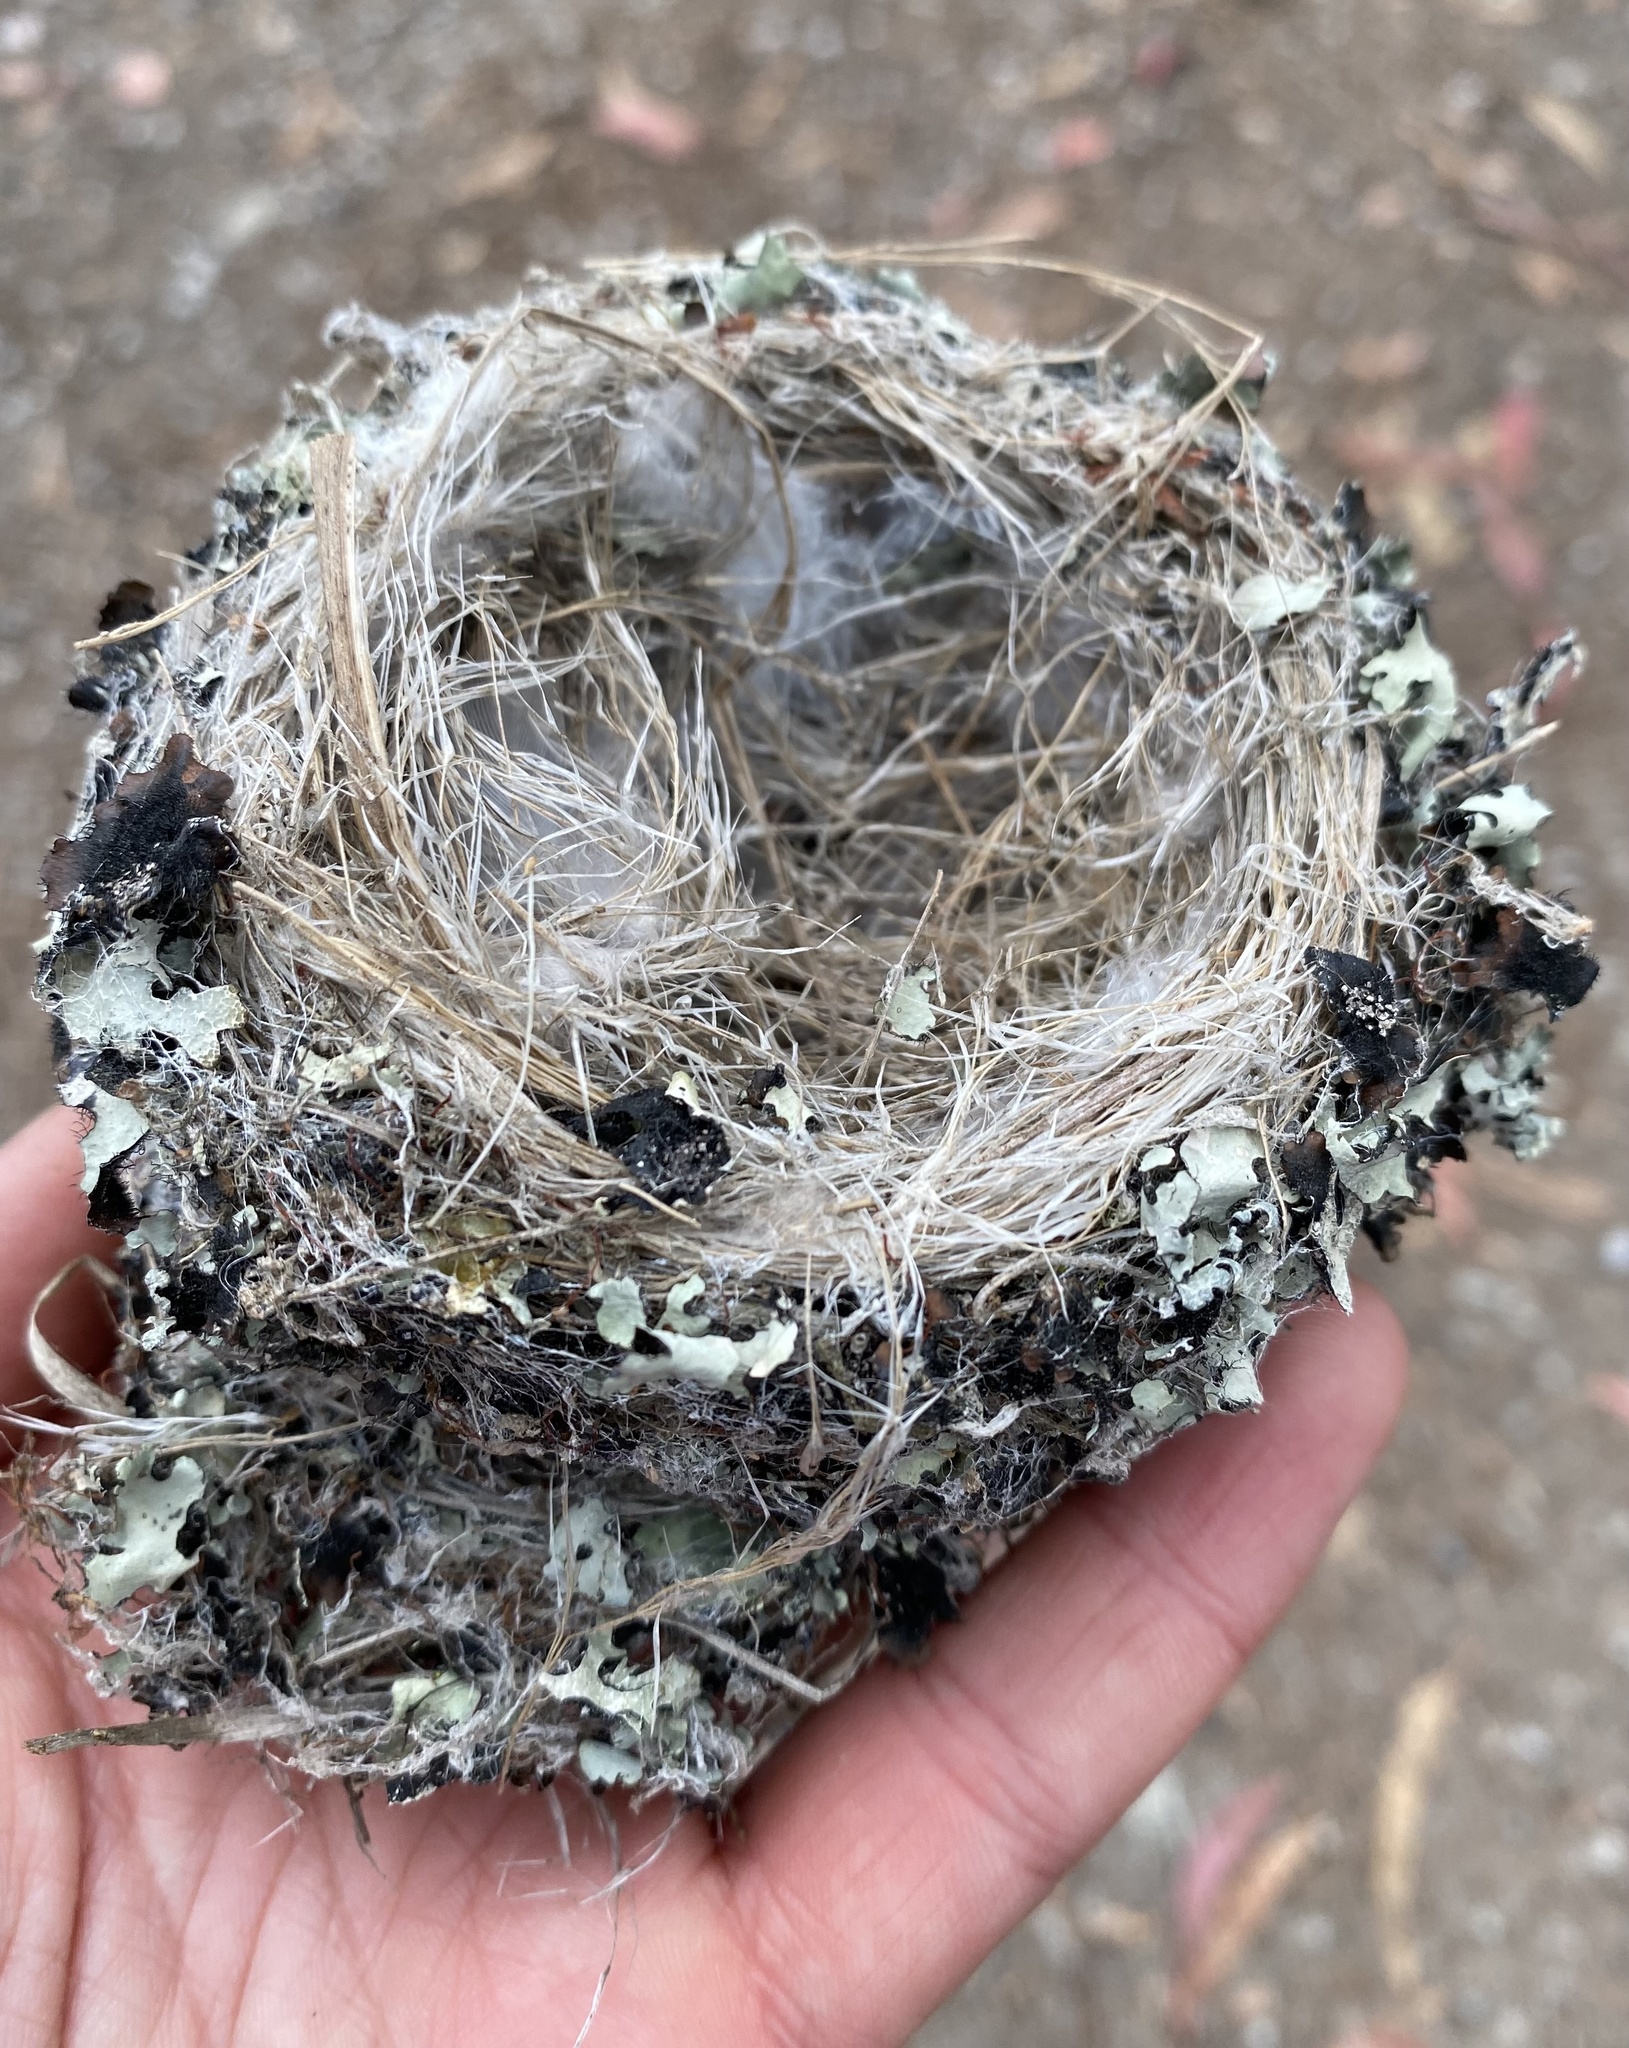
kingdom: Animalia
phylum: Chordata
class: Aves
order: Apodiformes
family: Trochilidae
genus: Calypte
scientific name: Calypte anna
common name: Anna's hummingbird
